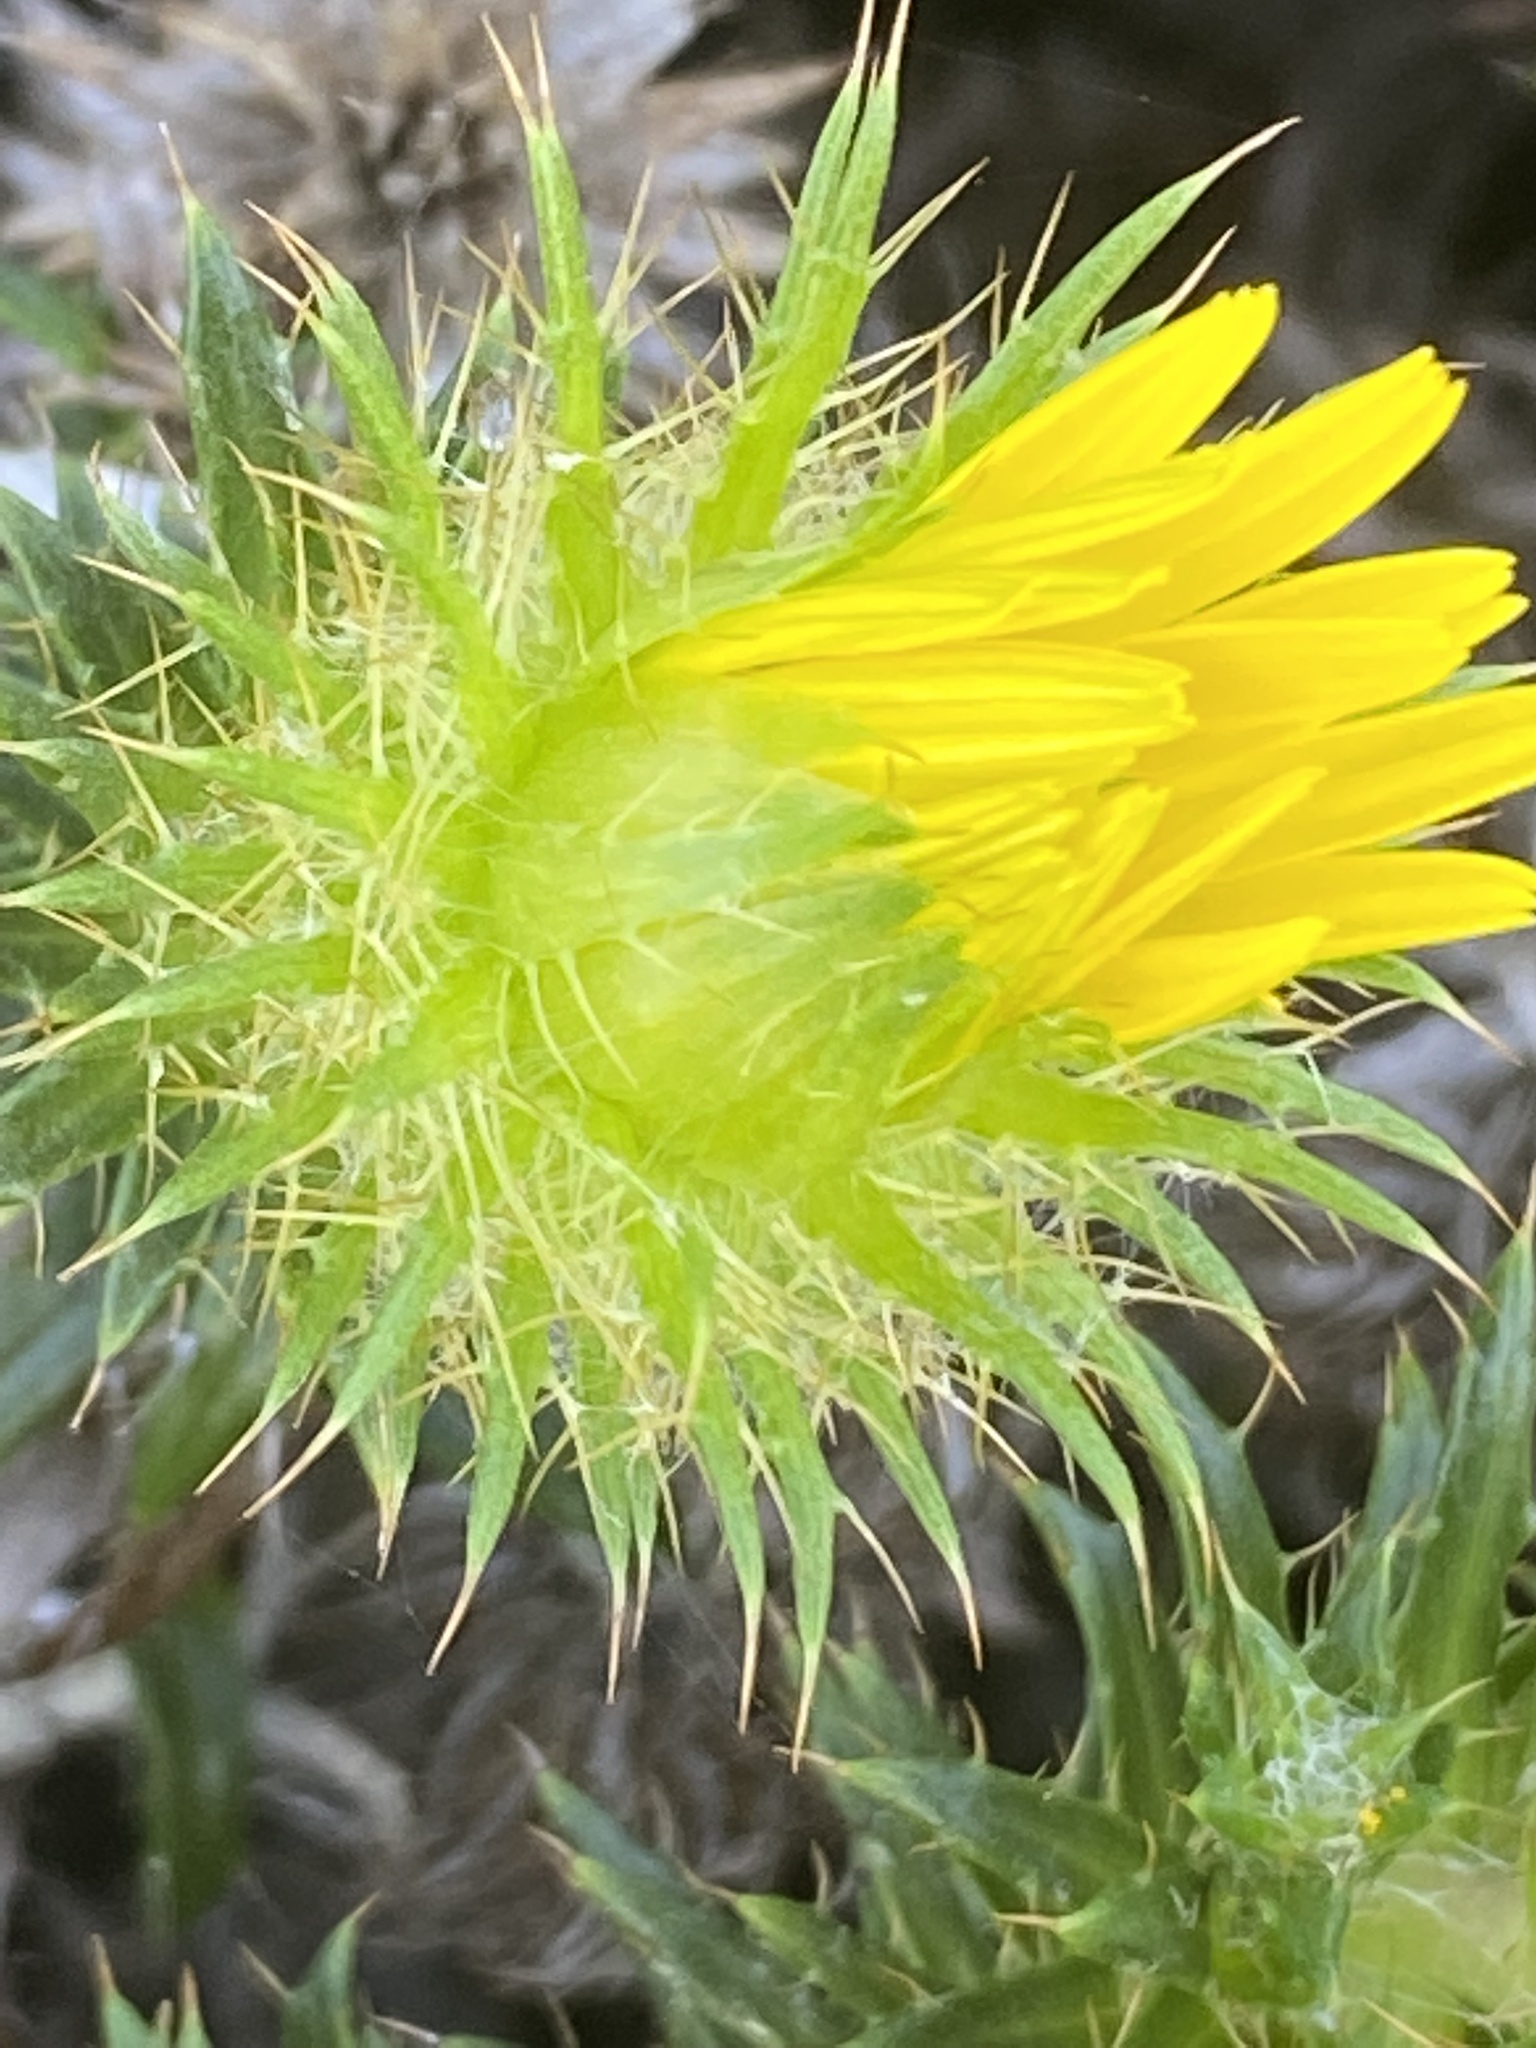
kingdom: Plantae
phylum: Tracheophyta
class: Magnoliopsida
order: Asterales
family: Asteraceae
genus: Cullumia
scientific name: Cullumia setosa
